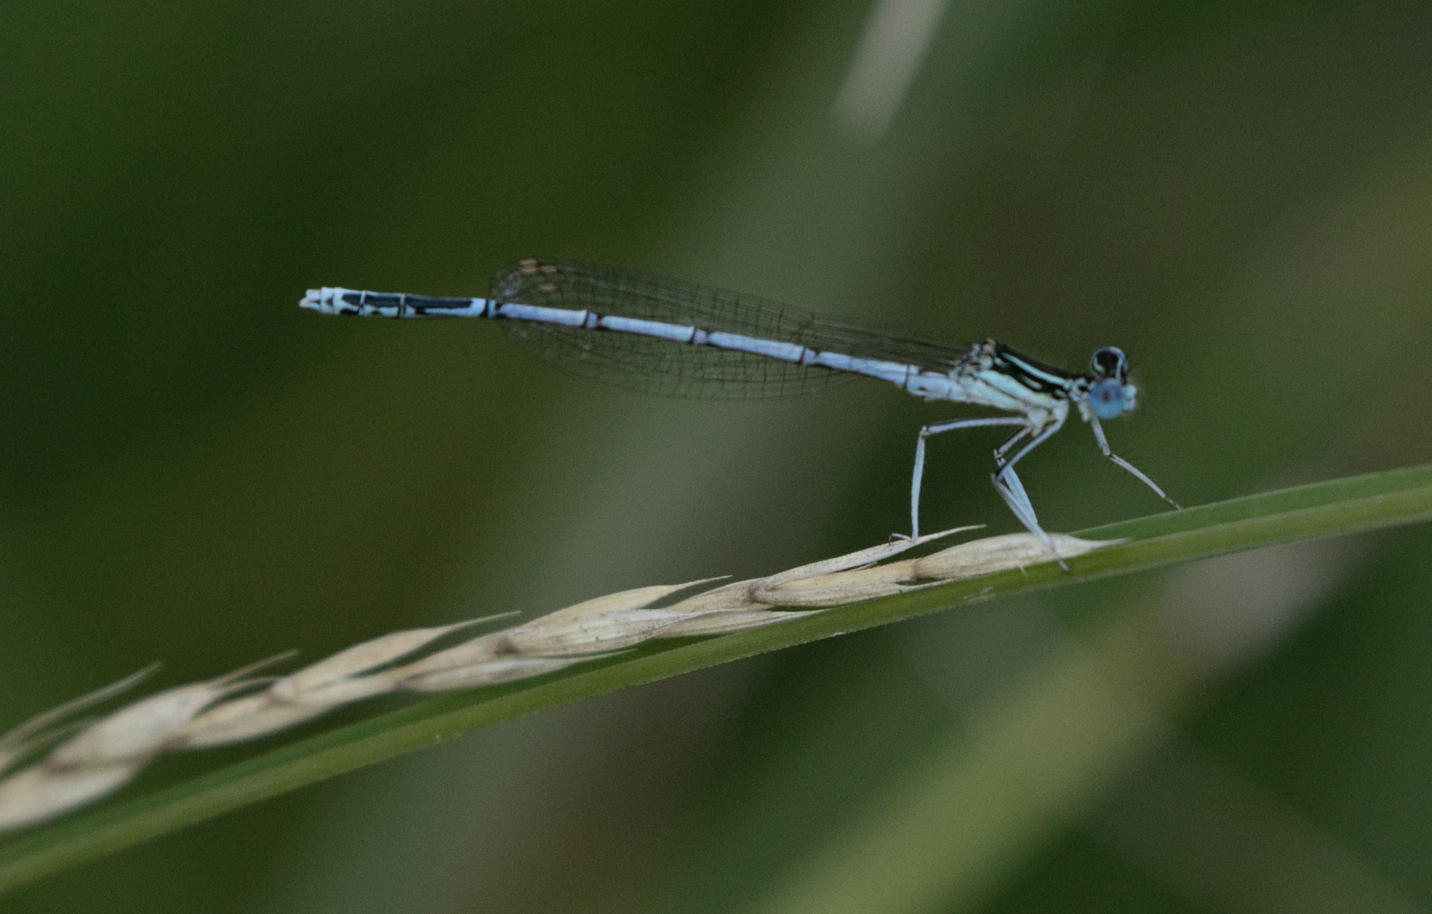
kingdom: Animalia
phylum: Arthropoda
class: Insecta
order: Odonata
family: Platycnemididae
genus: Platycnemis
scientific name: Platycnemis pennipes
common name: White-legged damselfly
